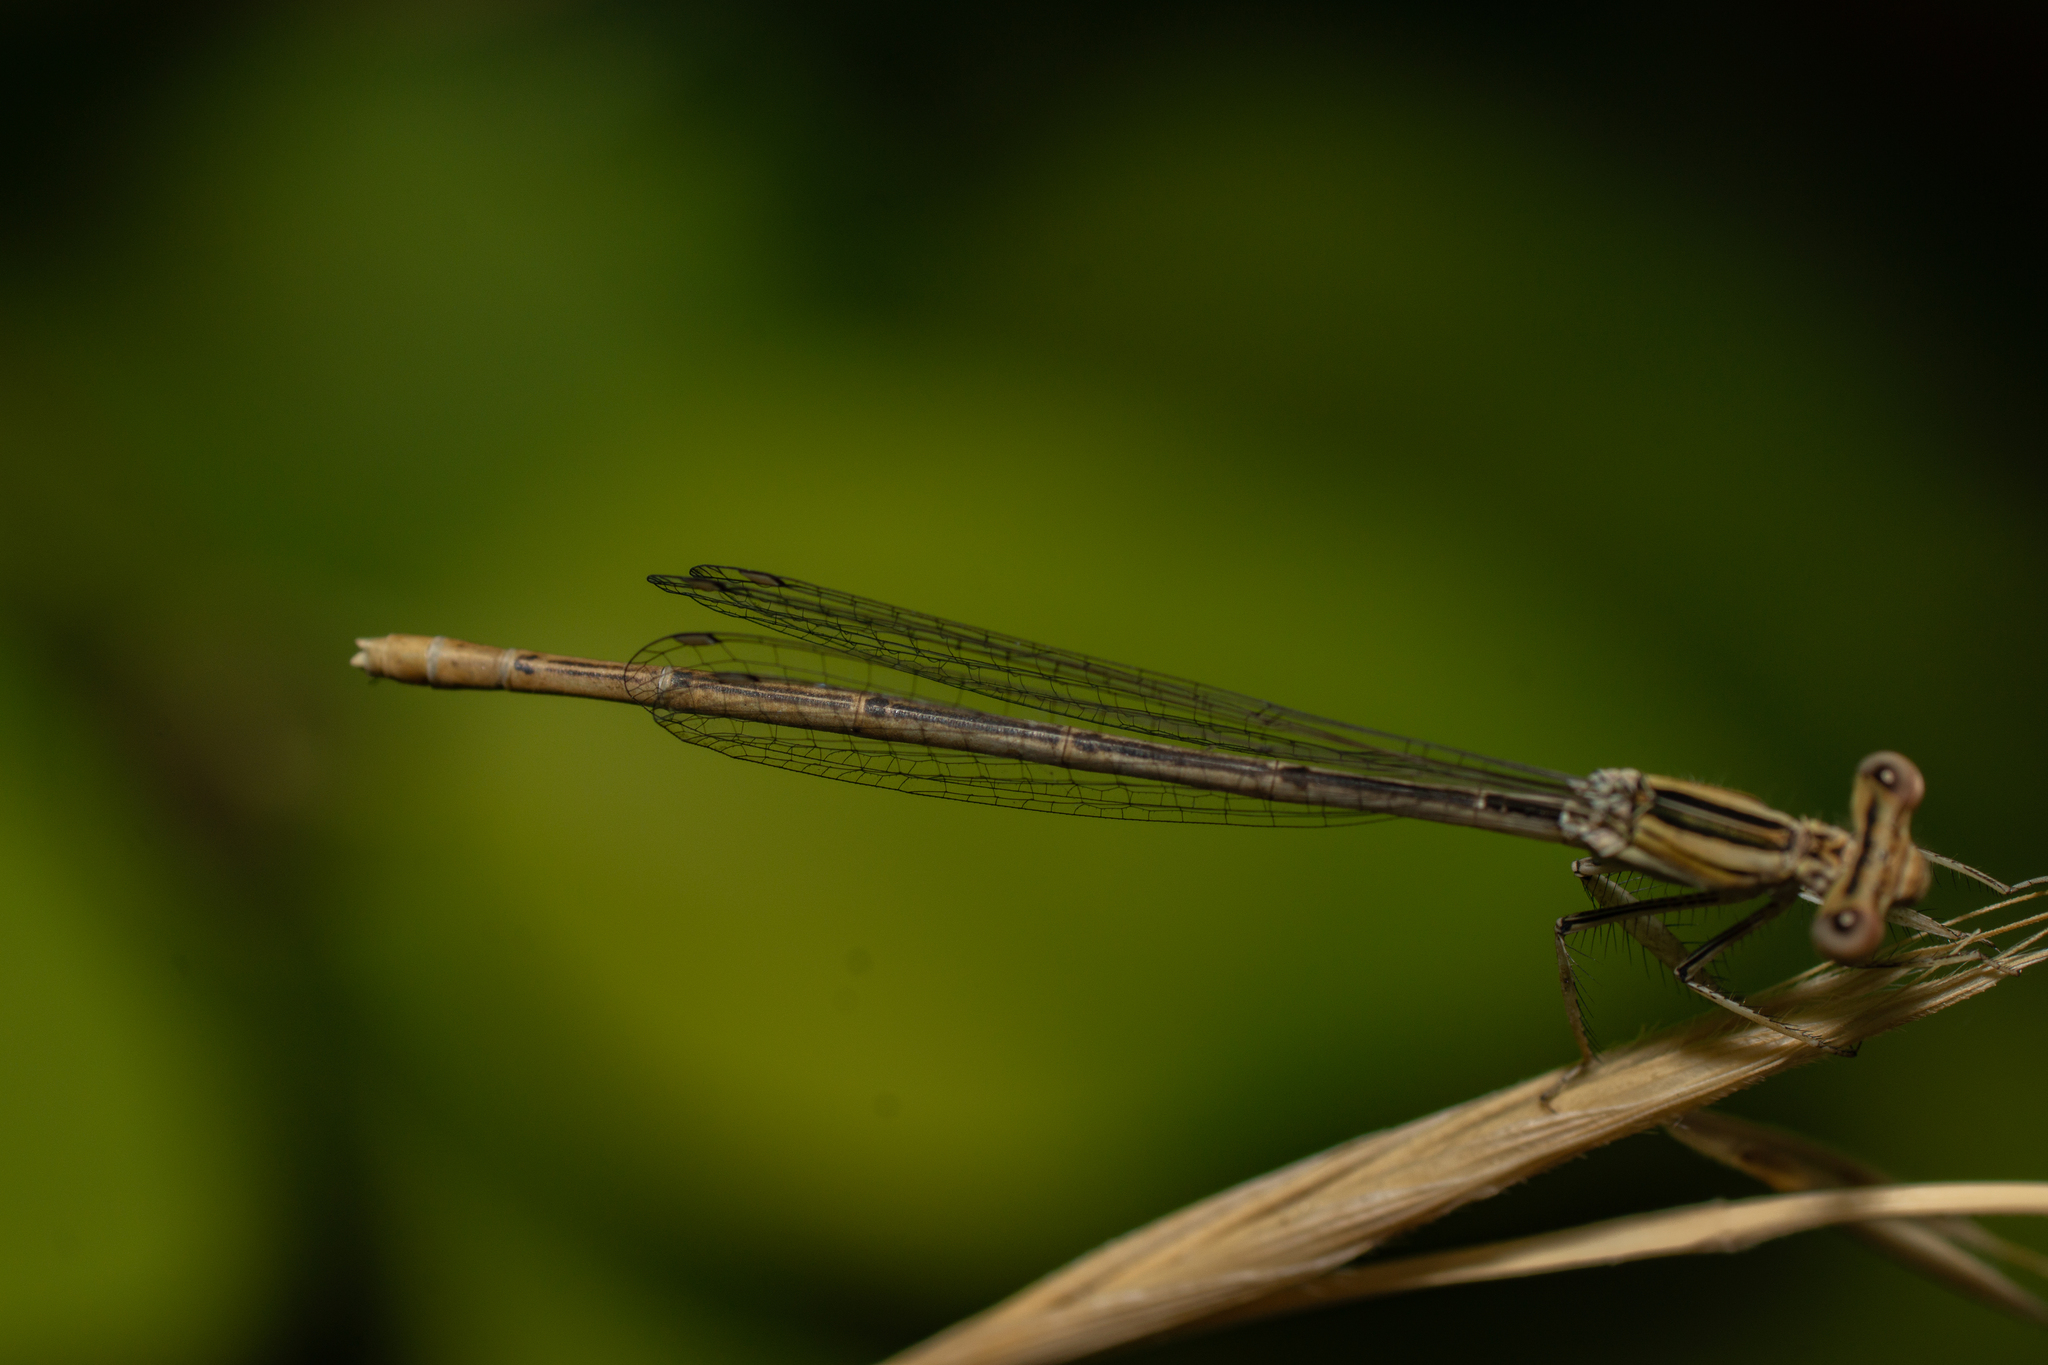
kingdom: Animalia
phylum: Arthropoda
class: Insecta
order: Odonata
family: Platycnemididae
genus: Platycnemis
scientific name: Platycnemis latipes
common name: White featherleg
